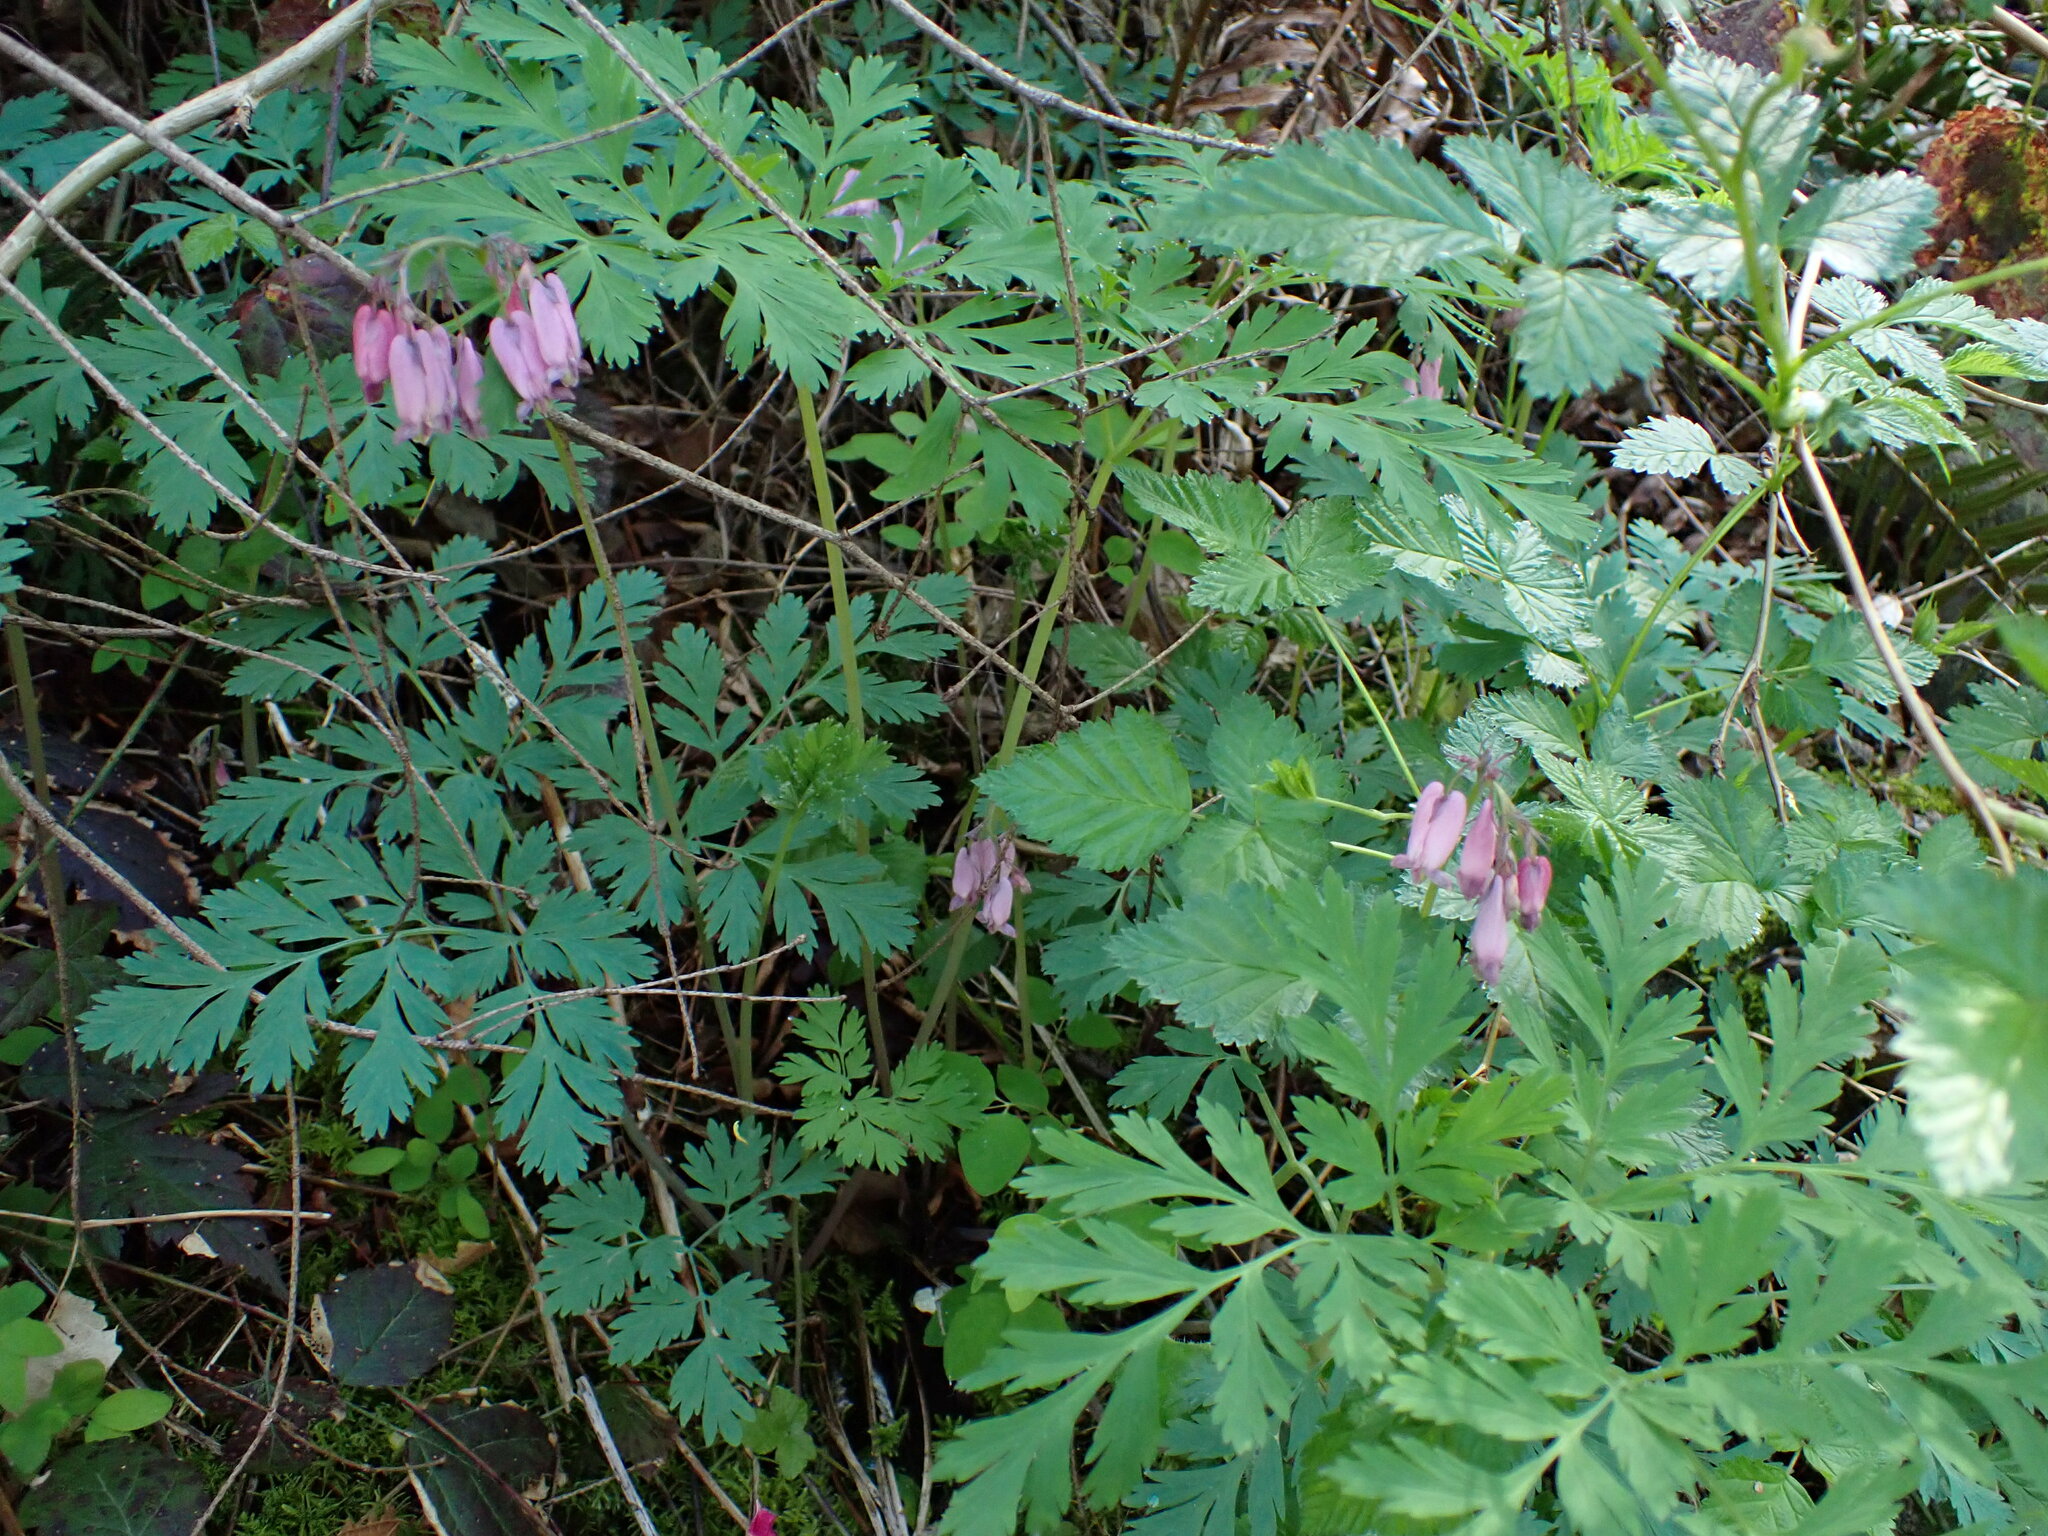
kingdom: Plantae
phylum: Tracheophyta
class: Magnoliopsida
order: Ranunculales
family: Papaveraceae
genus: Dicentra
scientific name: Dicentra formosa
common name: Bleeding-heart
